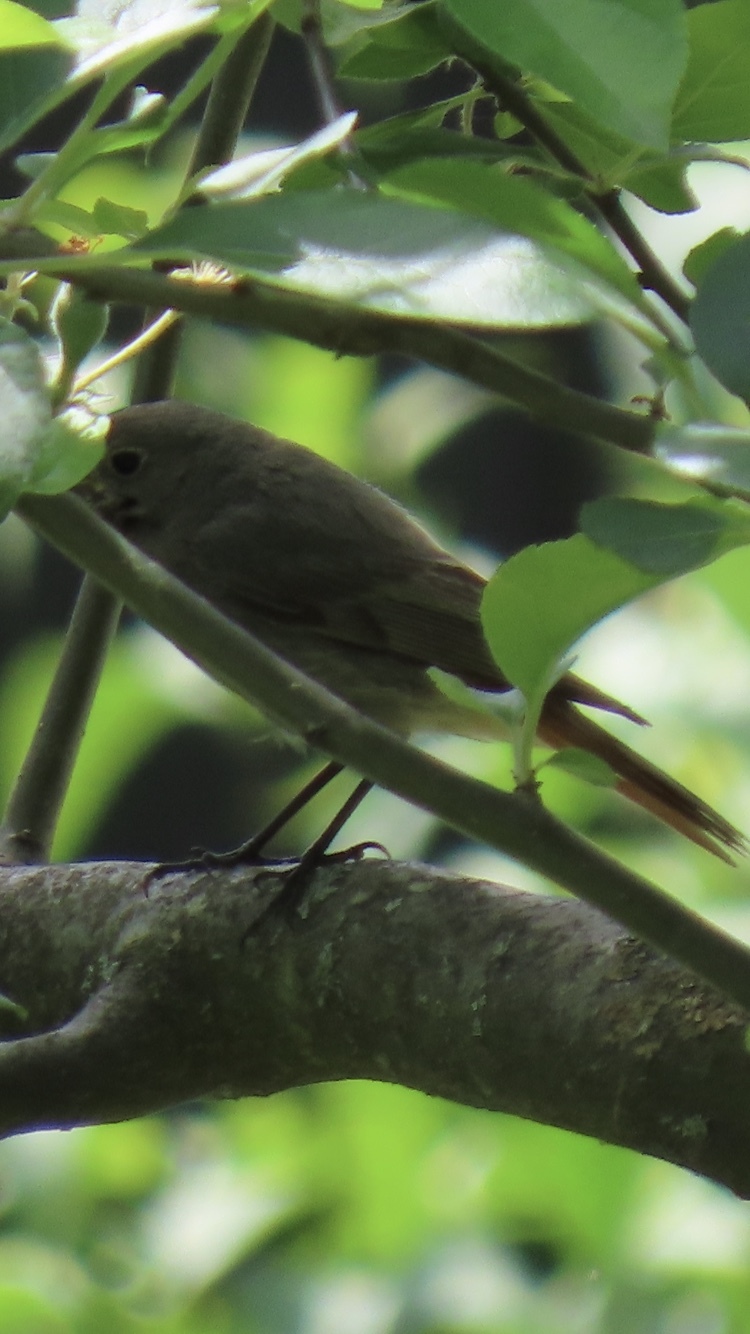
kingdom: Animalia
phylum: Chordata
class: Aves
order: Passeriformes
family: Muscicapidae
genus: Phoenicurus
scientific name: Phoenicurus ochruros
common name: Black redstart
